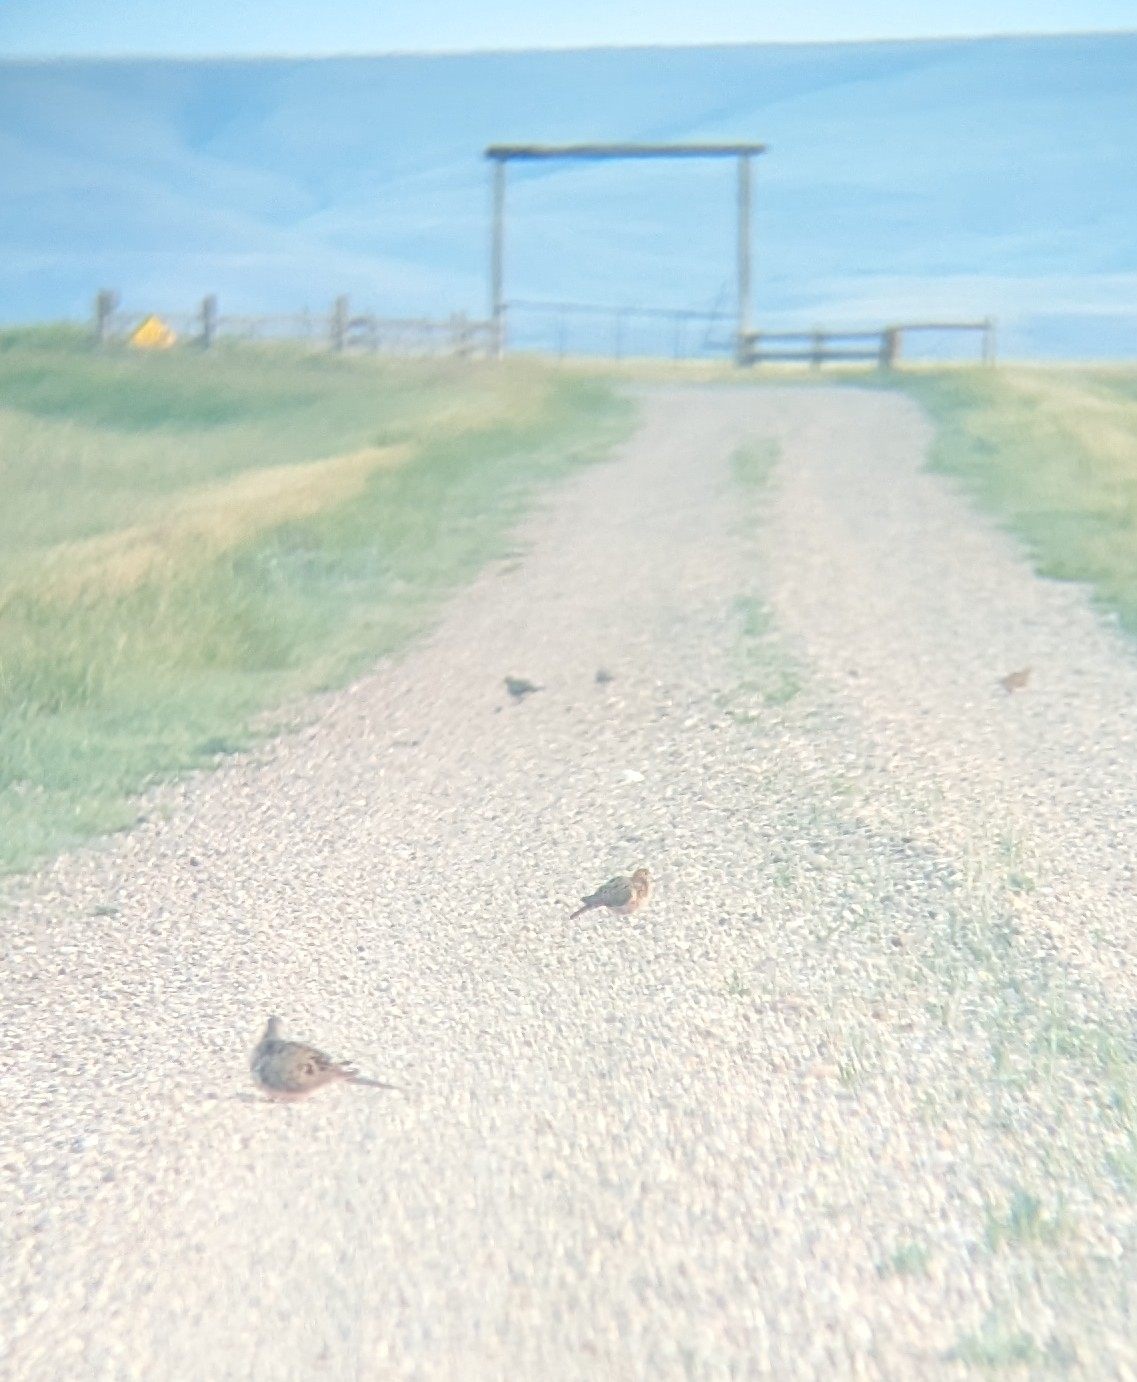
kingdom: Animalia
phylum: Chordata
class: Aves
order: Columbiformes
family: Columbidae
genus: Zenaida
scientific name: Zenaida macroura
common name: Mourning dove
